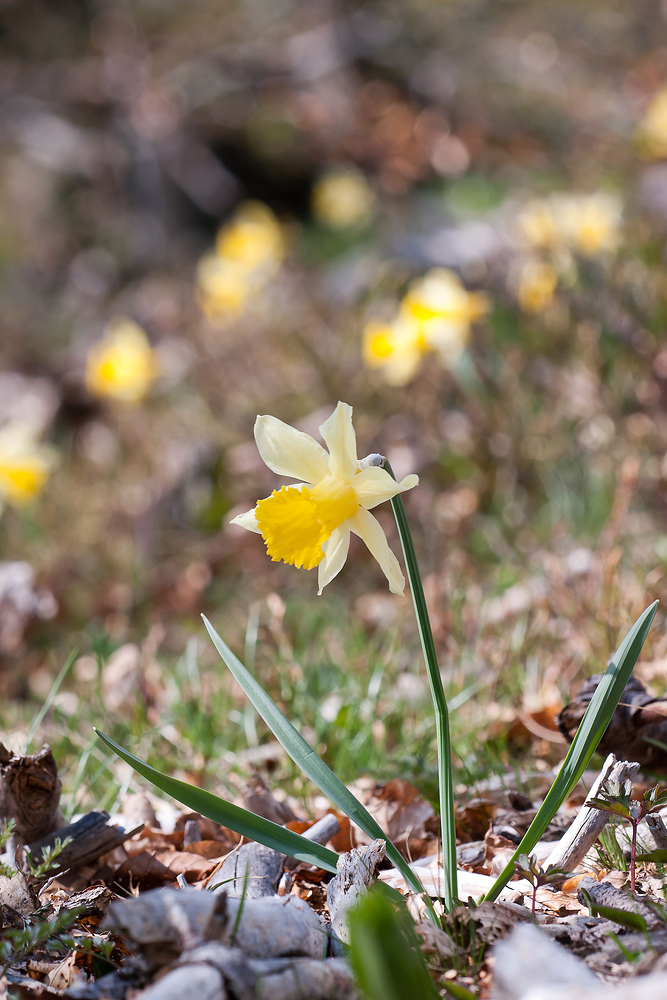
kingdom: Plantae
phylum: Tracheophyta
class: Liliopsida
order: Asparagales
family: Amaryllidaceae
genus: Narcissus
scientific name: Narcissus pseudonarcissus
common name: Daffodil
